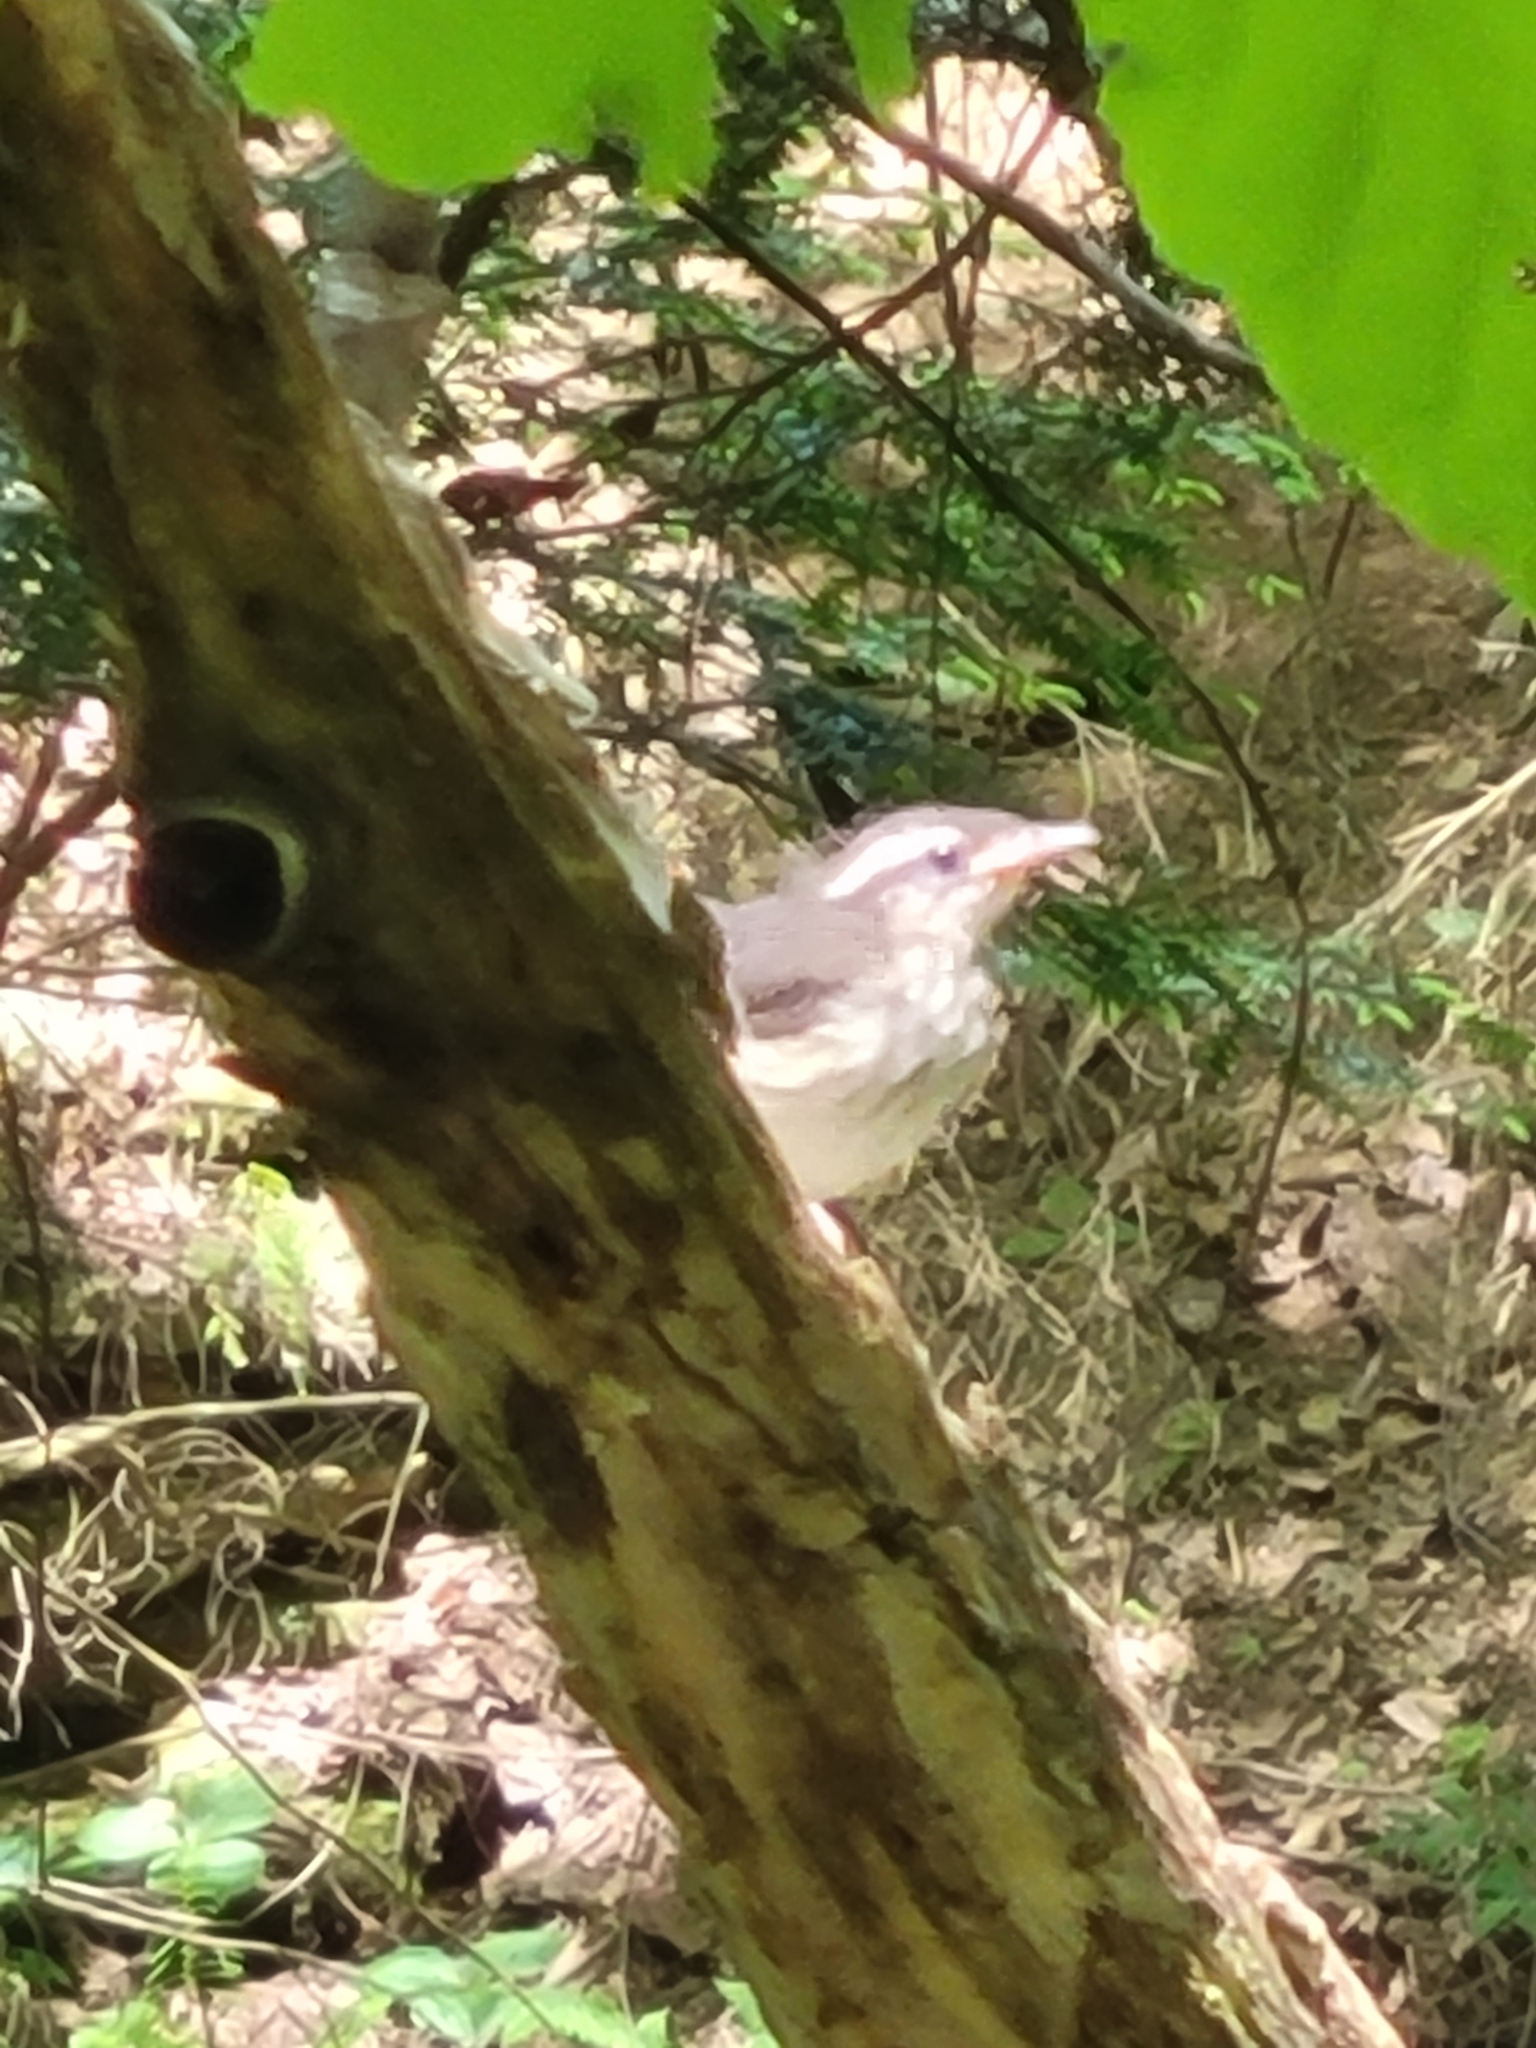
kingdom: Animalia
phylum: Chordata
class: Aves
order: Passeriformes
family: Parulidae
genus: Parkesia
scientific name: Parkesia motacilla
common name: Louisiana waterthrush
